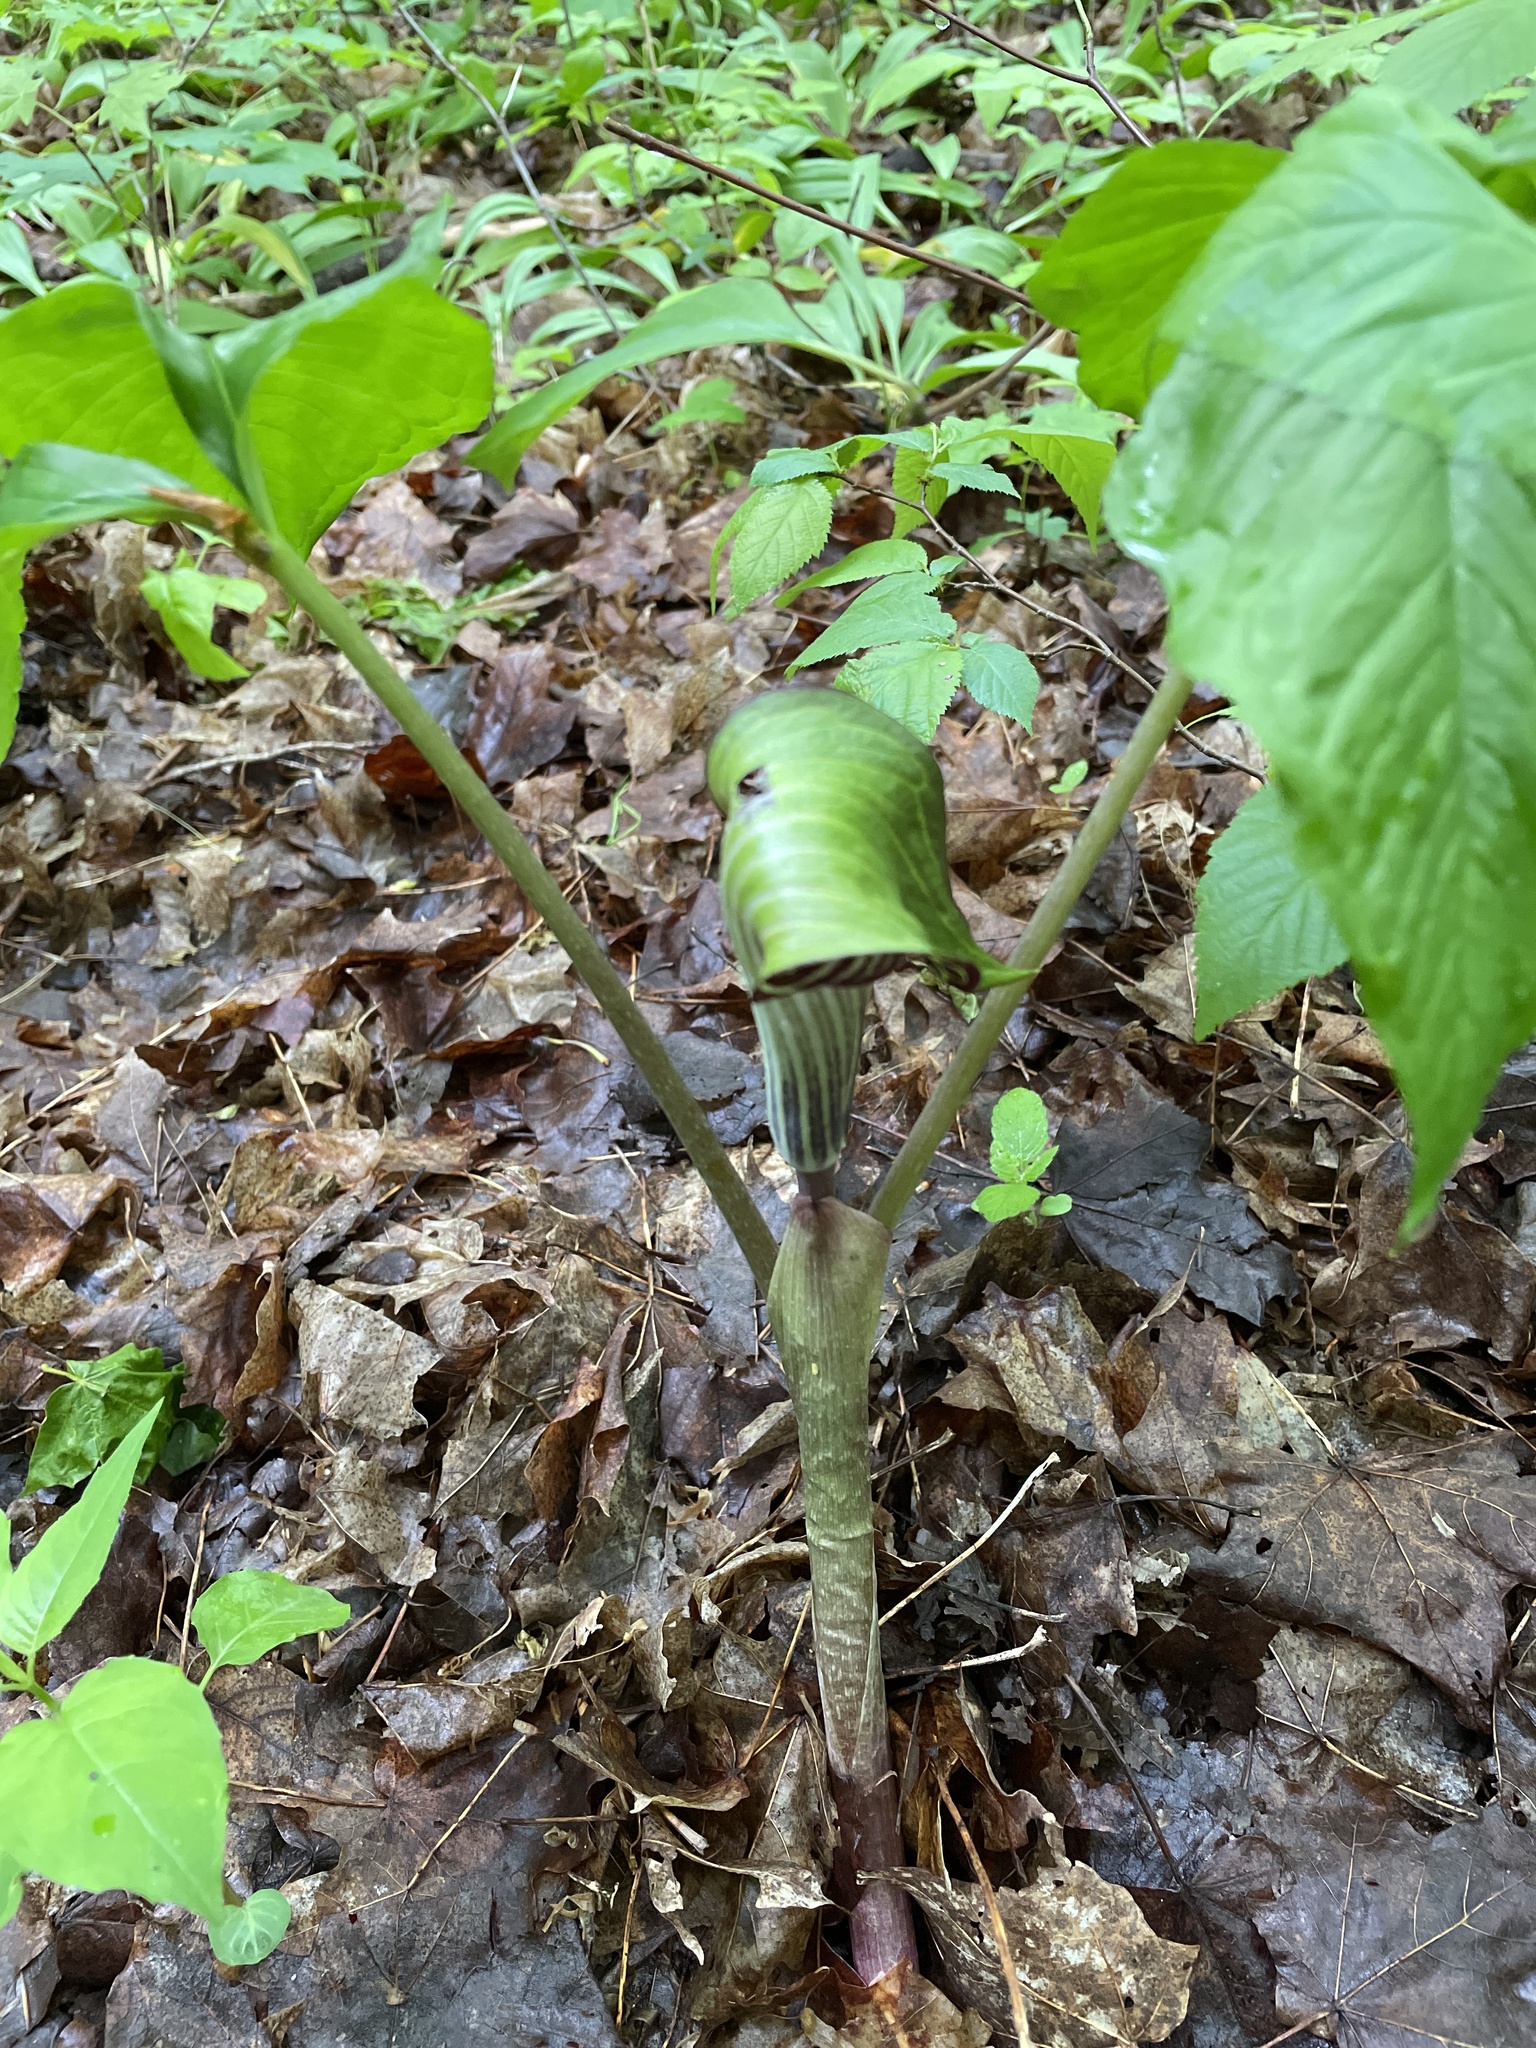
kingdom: Plantae
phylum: Tracheophyta
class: Liliopsida
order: Alismatales
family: Araceae
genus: Arisaema
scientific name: Arisaema triphyllum
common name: Jack-in-the-pulpit
